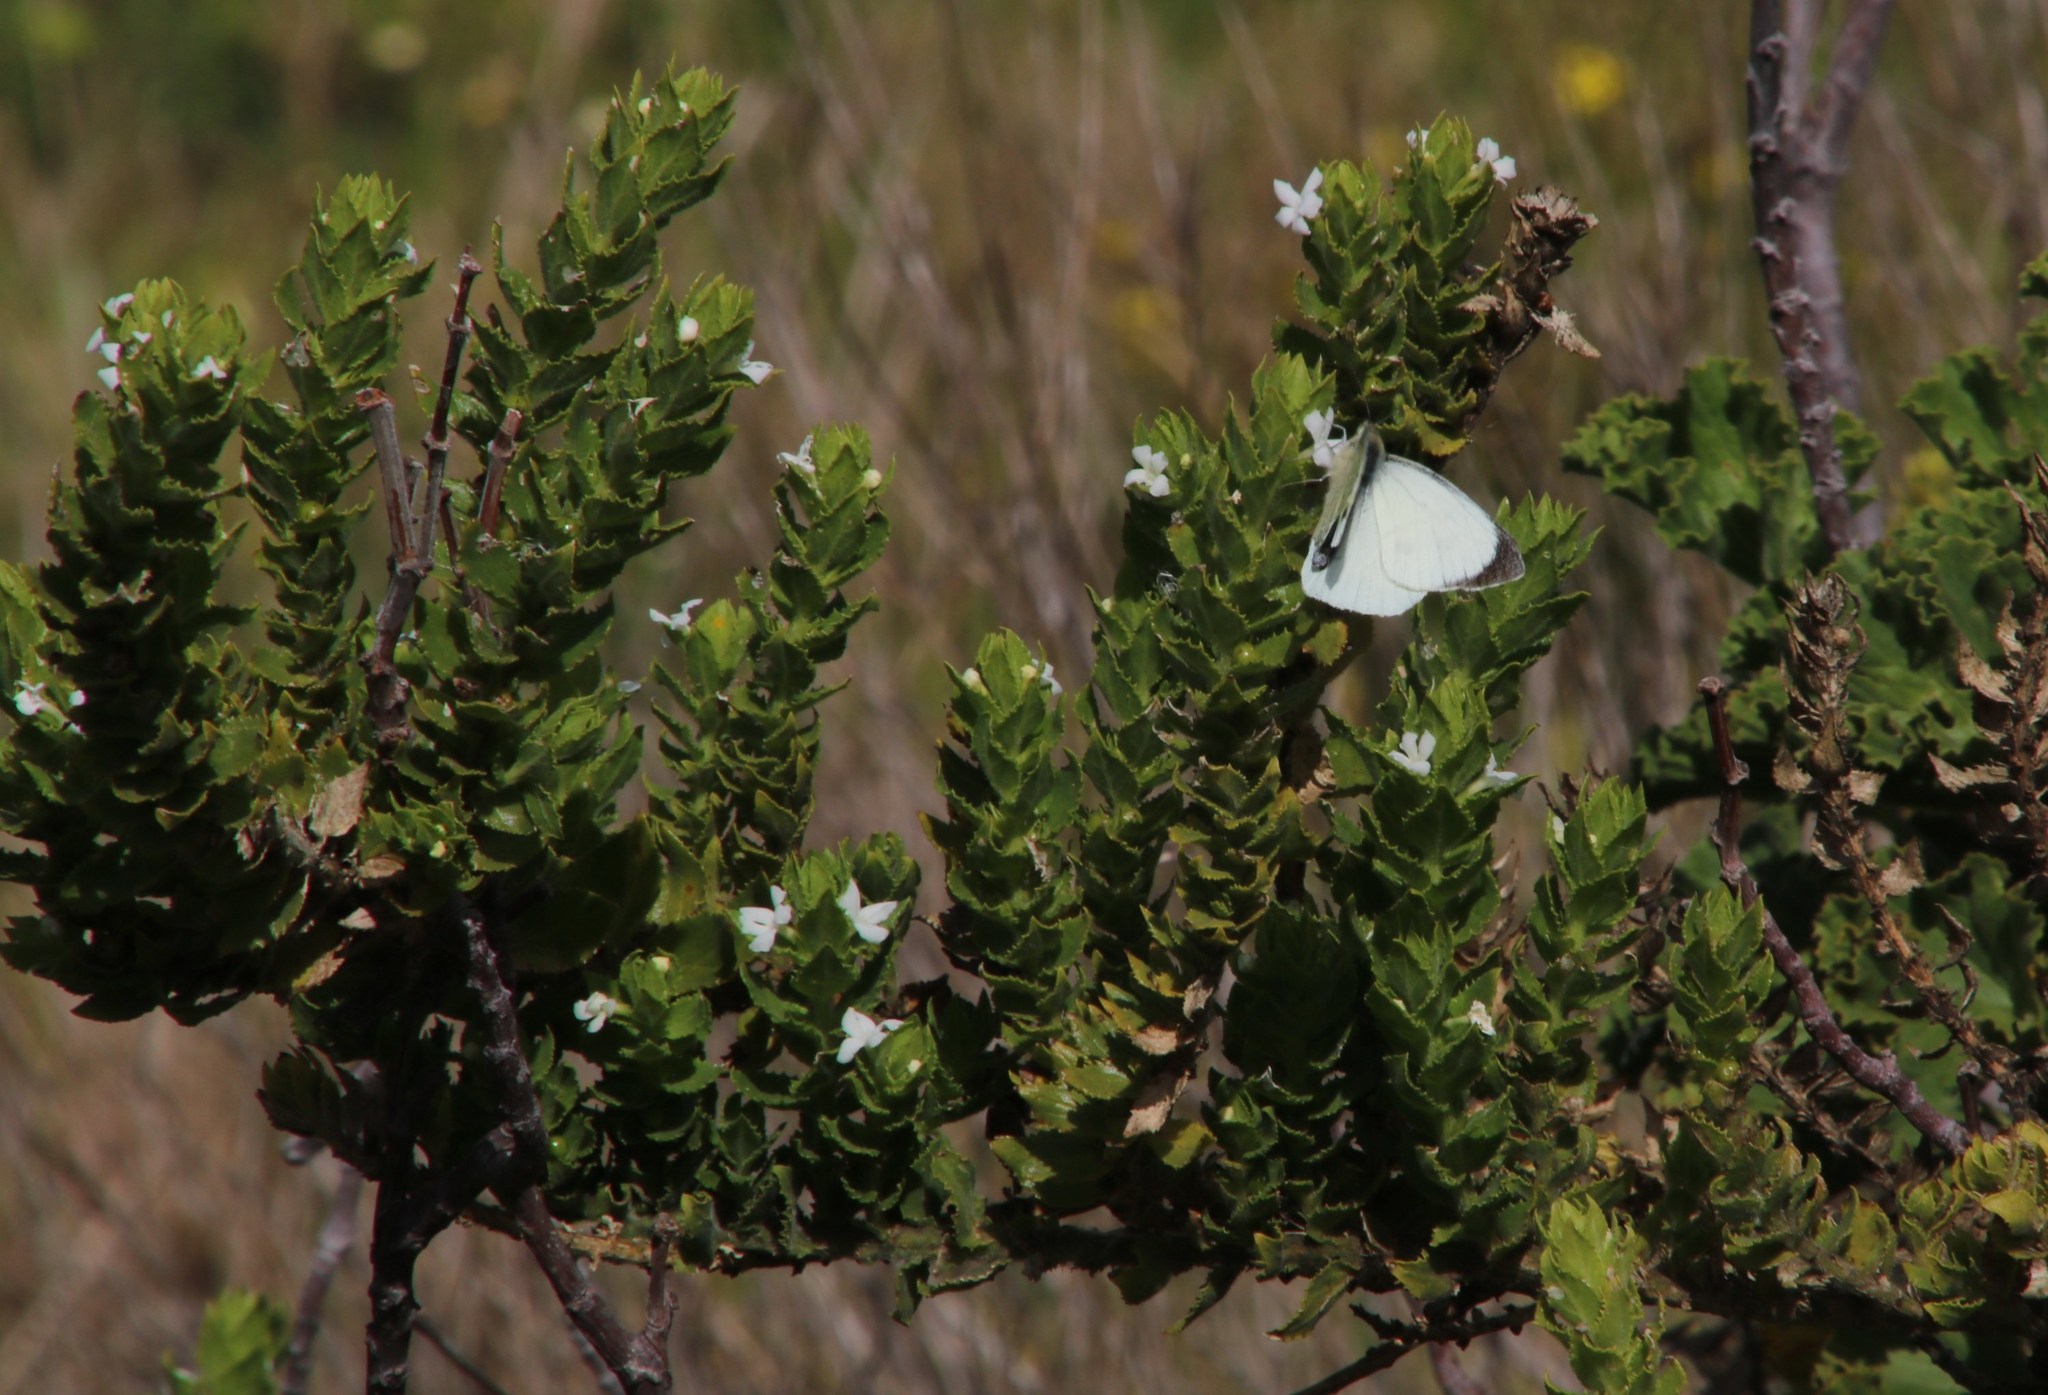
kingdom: Plantae
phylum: Tracheophyta
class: Magnoliopsida
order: Lamiales
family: Scrophulariaceae
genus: Oftia
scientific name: Oftia africana
